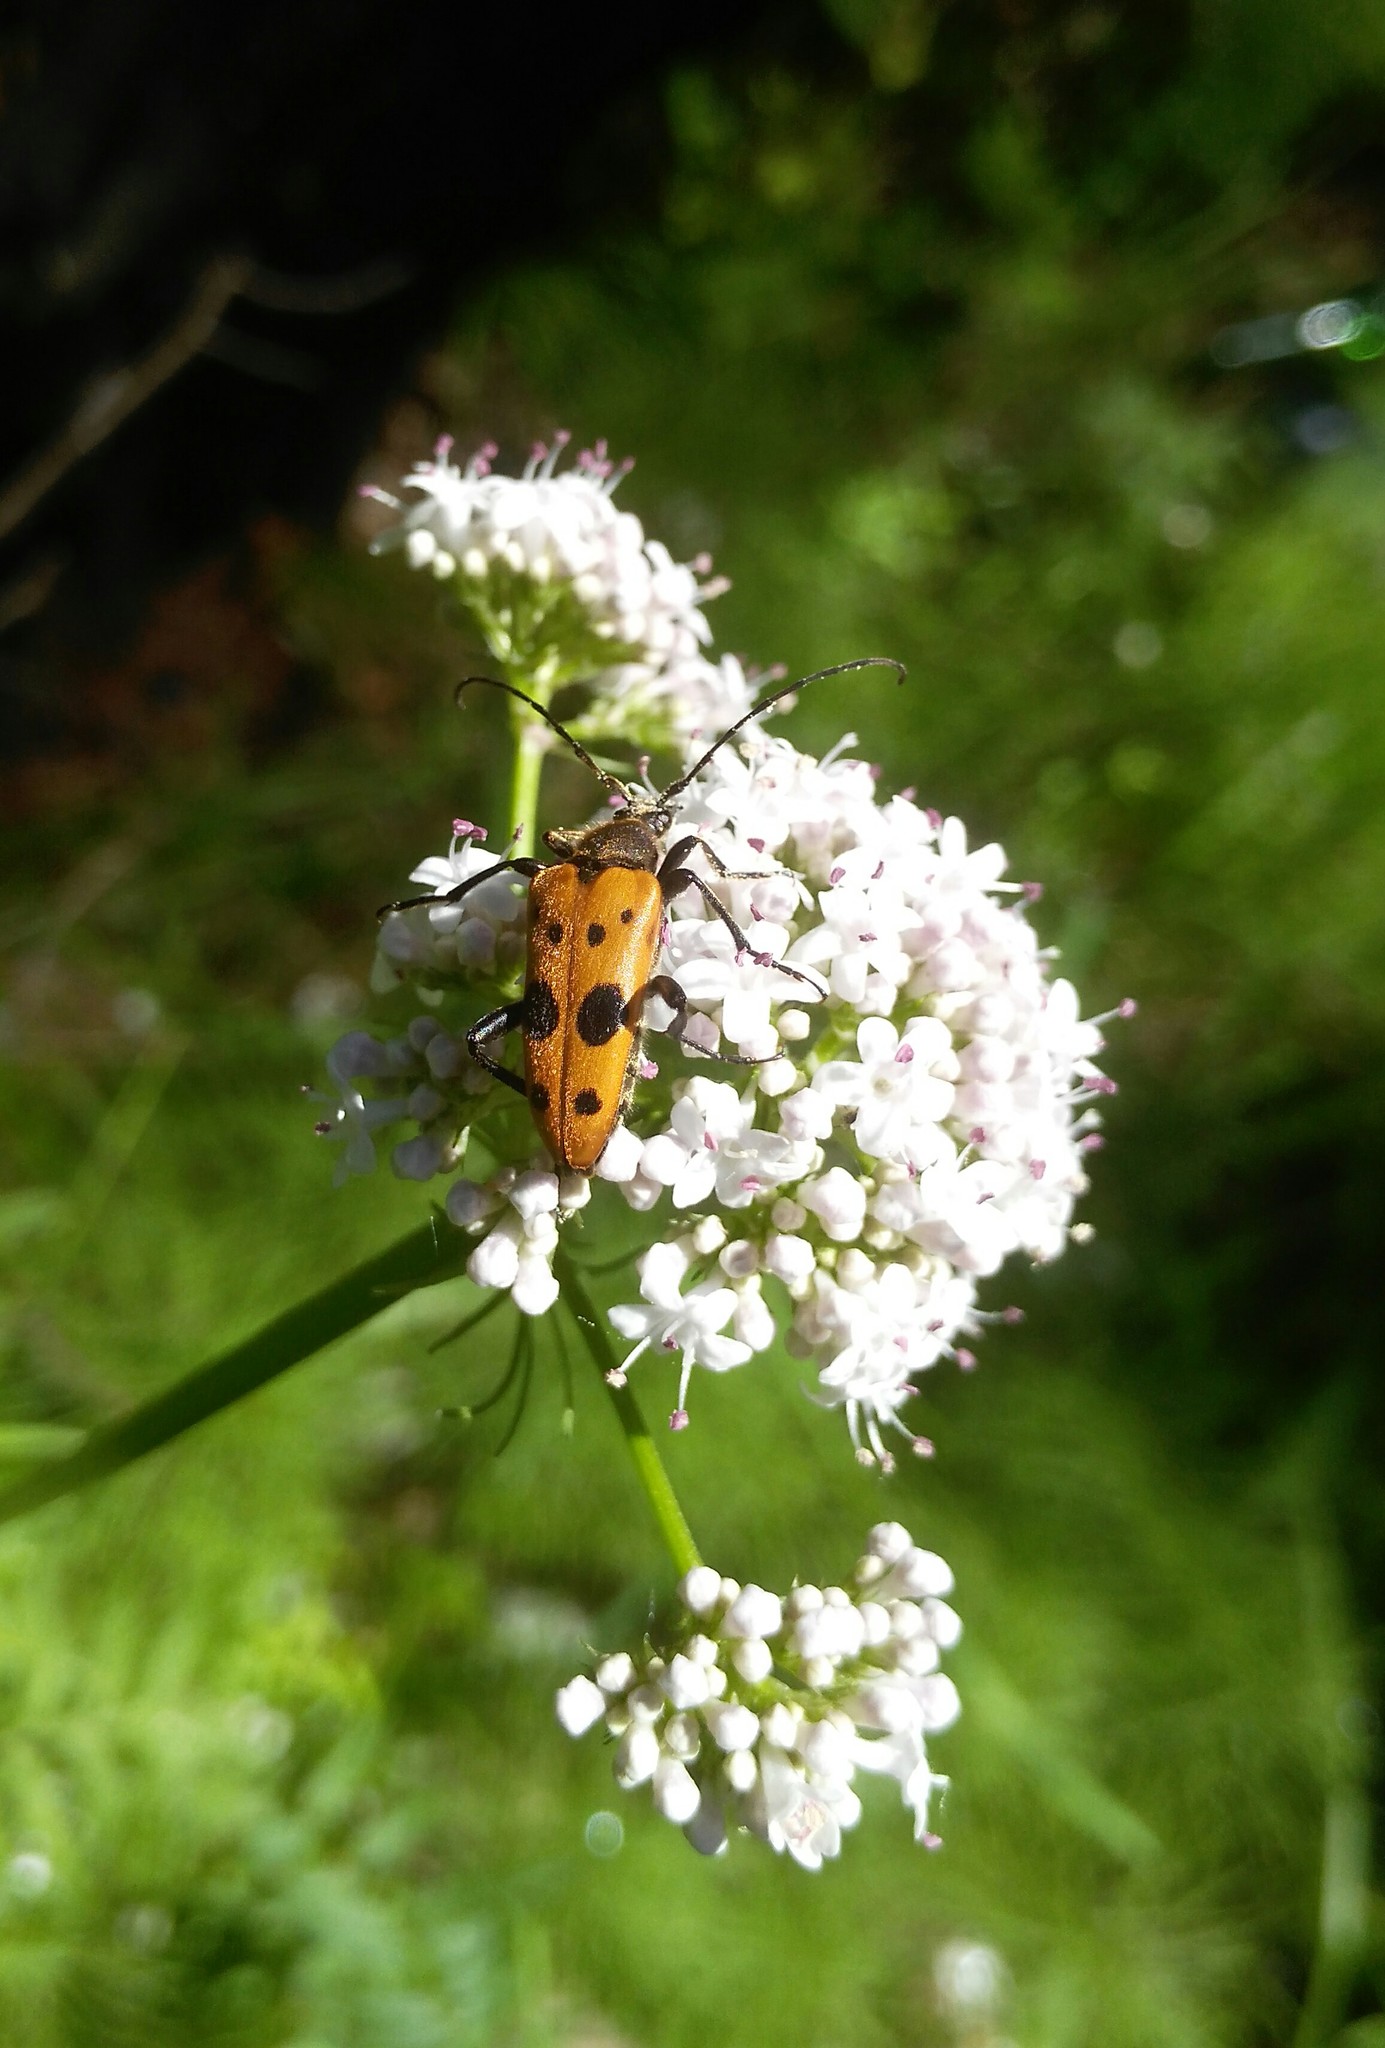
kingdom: Animalia
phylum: Arthropoda
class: Insecta
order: Coleoptera
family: Cerambycidae
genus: Oedecnema
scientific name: Oedecnema gebleri
